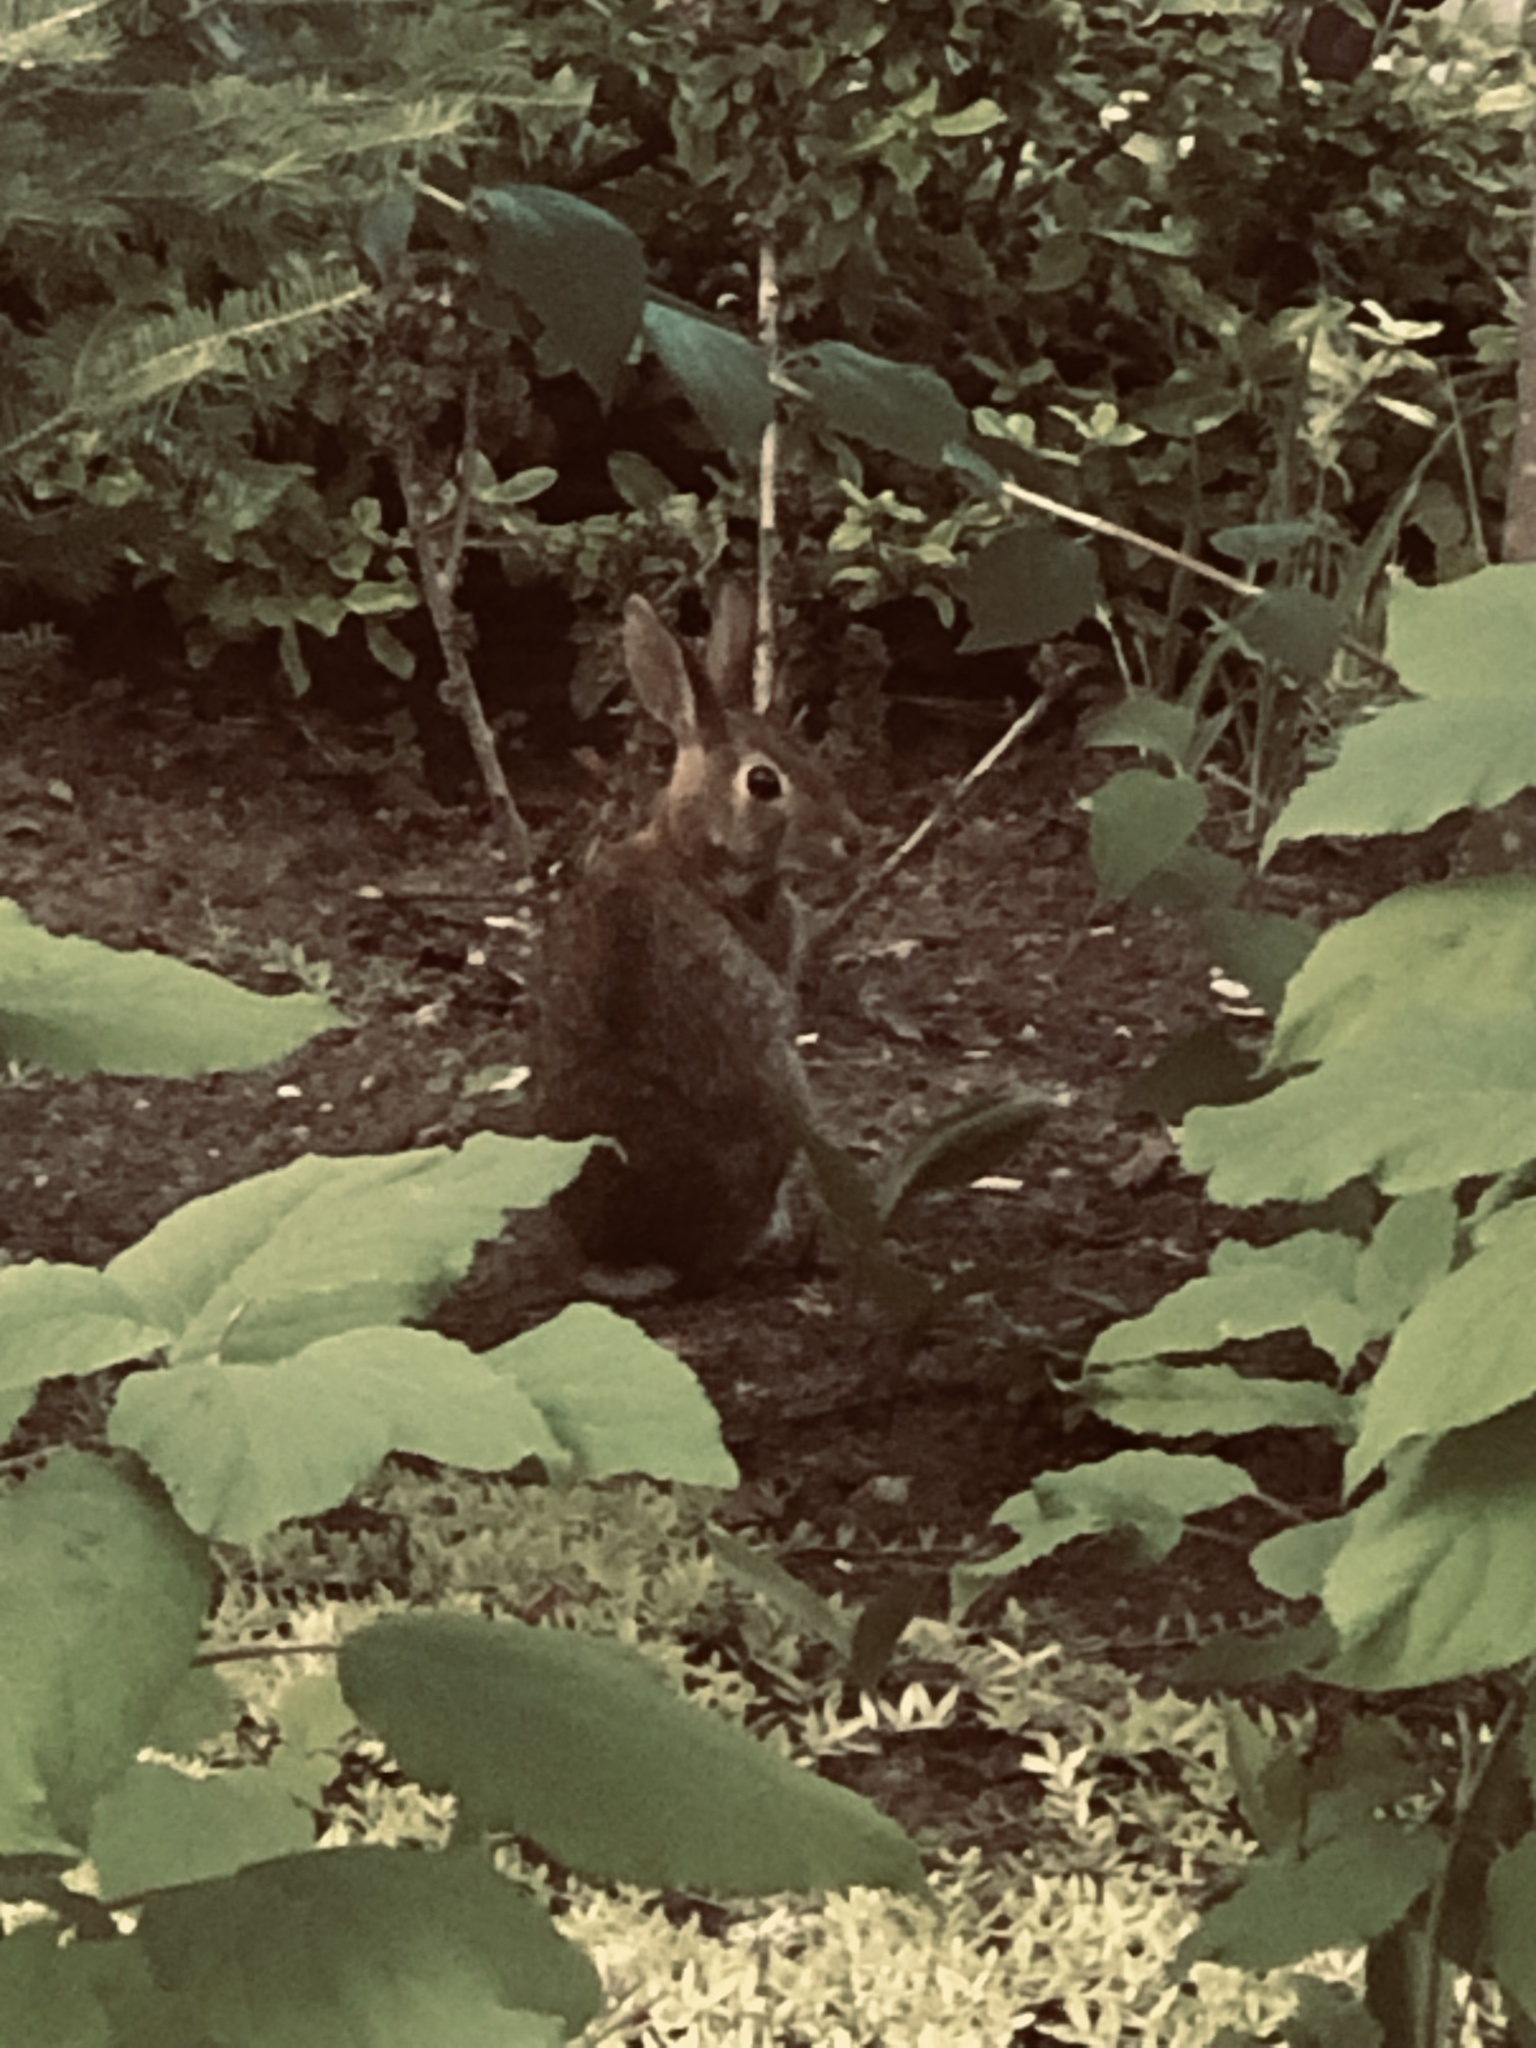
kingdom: Animalia
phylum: Chordata
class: Mammalia
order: Lagomorpha
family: Leporidae
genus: Sylvilagus
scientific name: Sylvilagus floridanus
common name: Eastern cottontail
